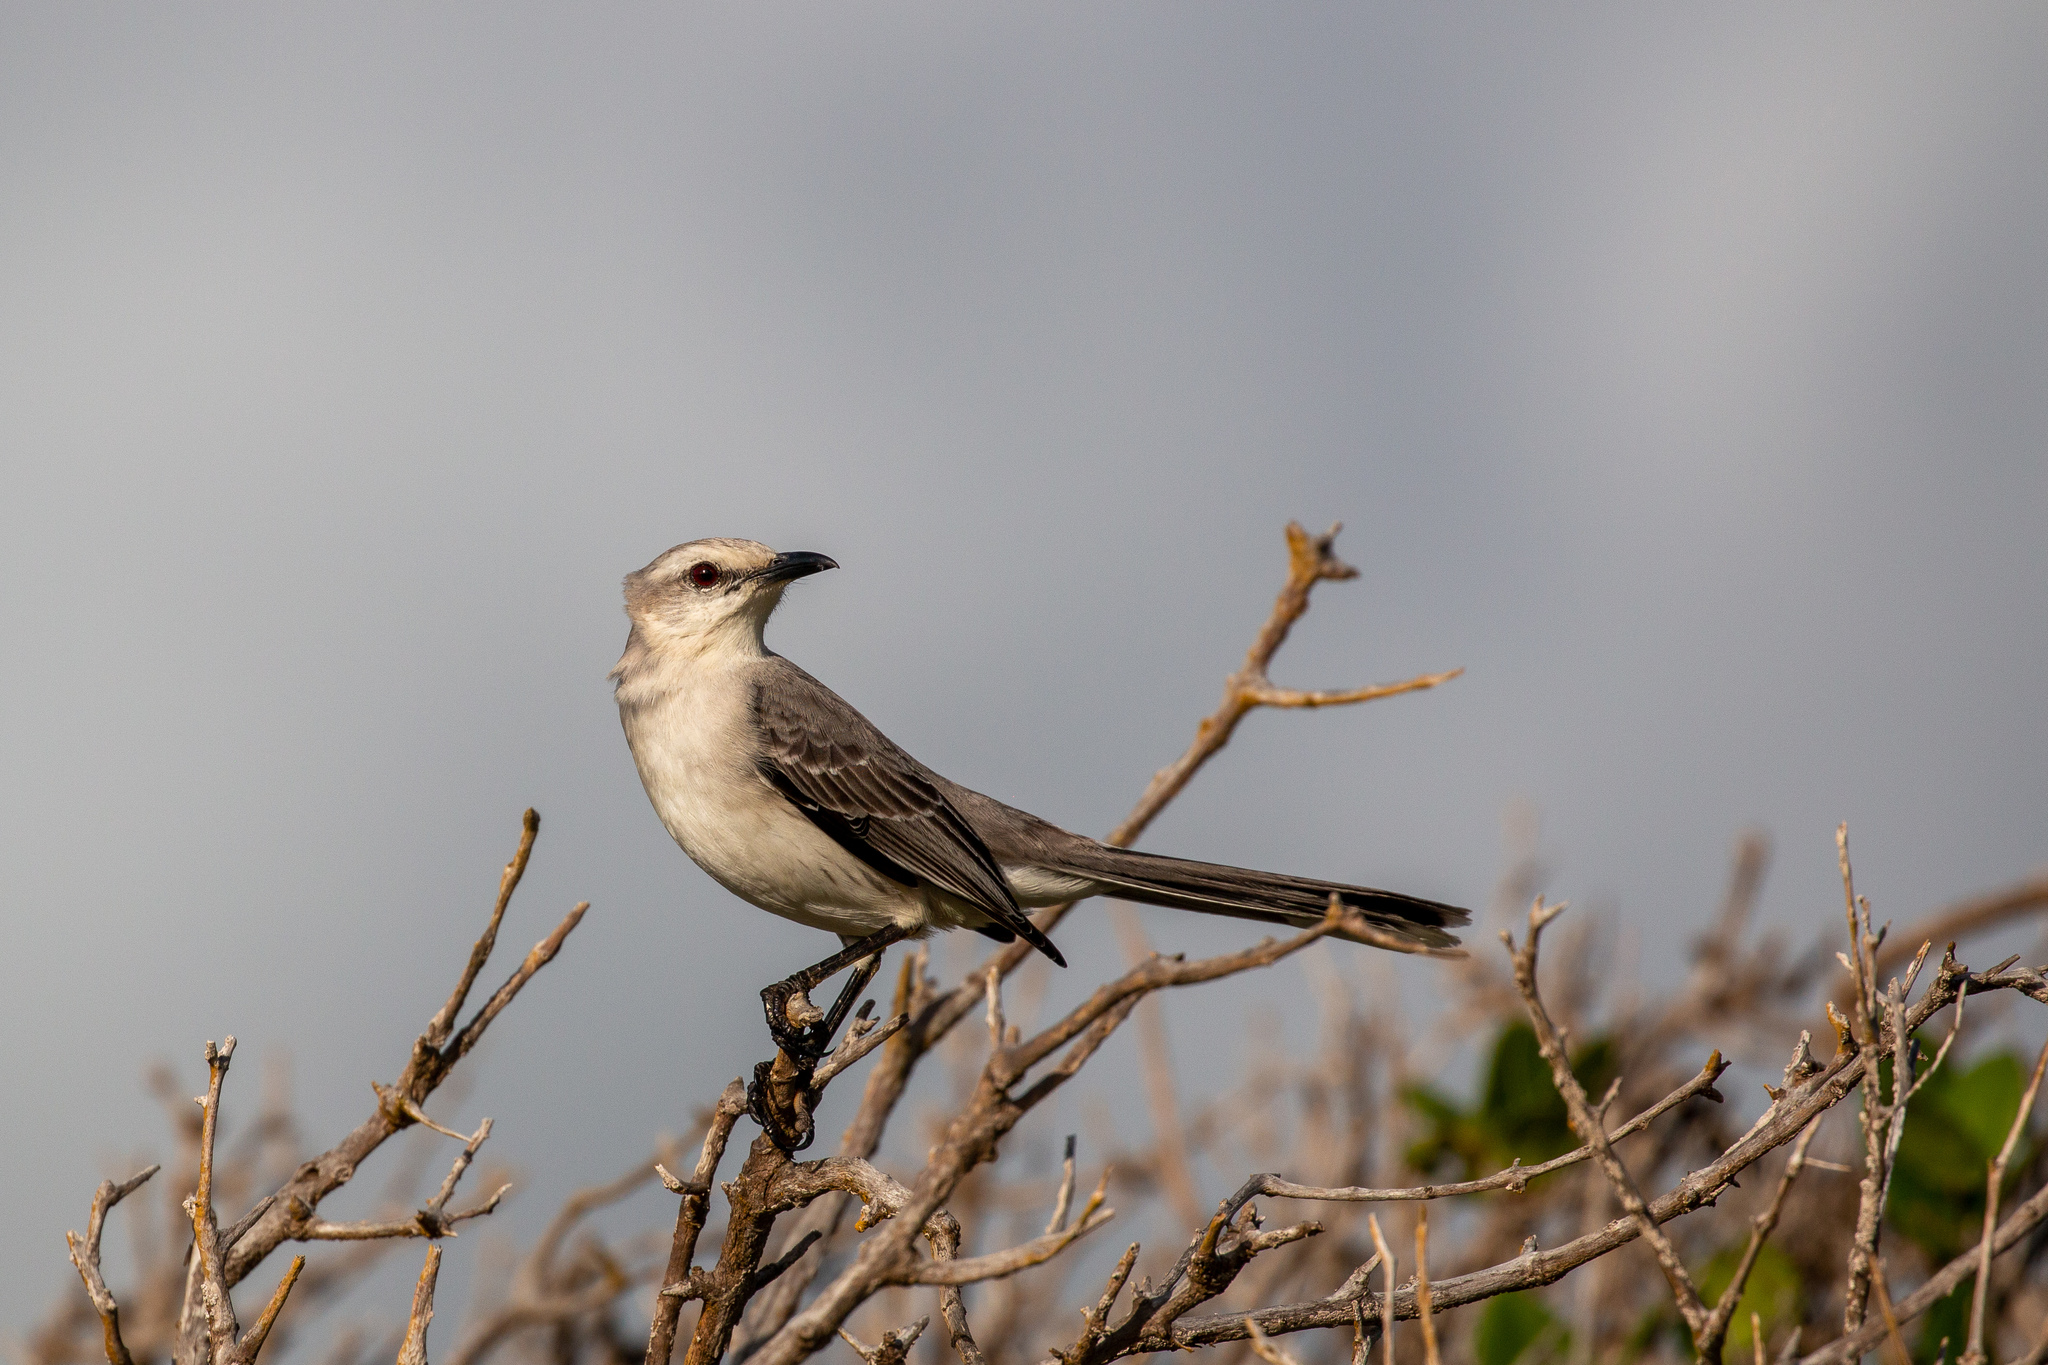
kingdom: Animalia
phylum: Chordata
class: Aves
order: Passeriformes
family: Mimidae
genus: Mimus
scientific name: Mimus gilvus
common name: Tropical mockingbird
